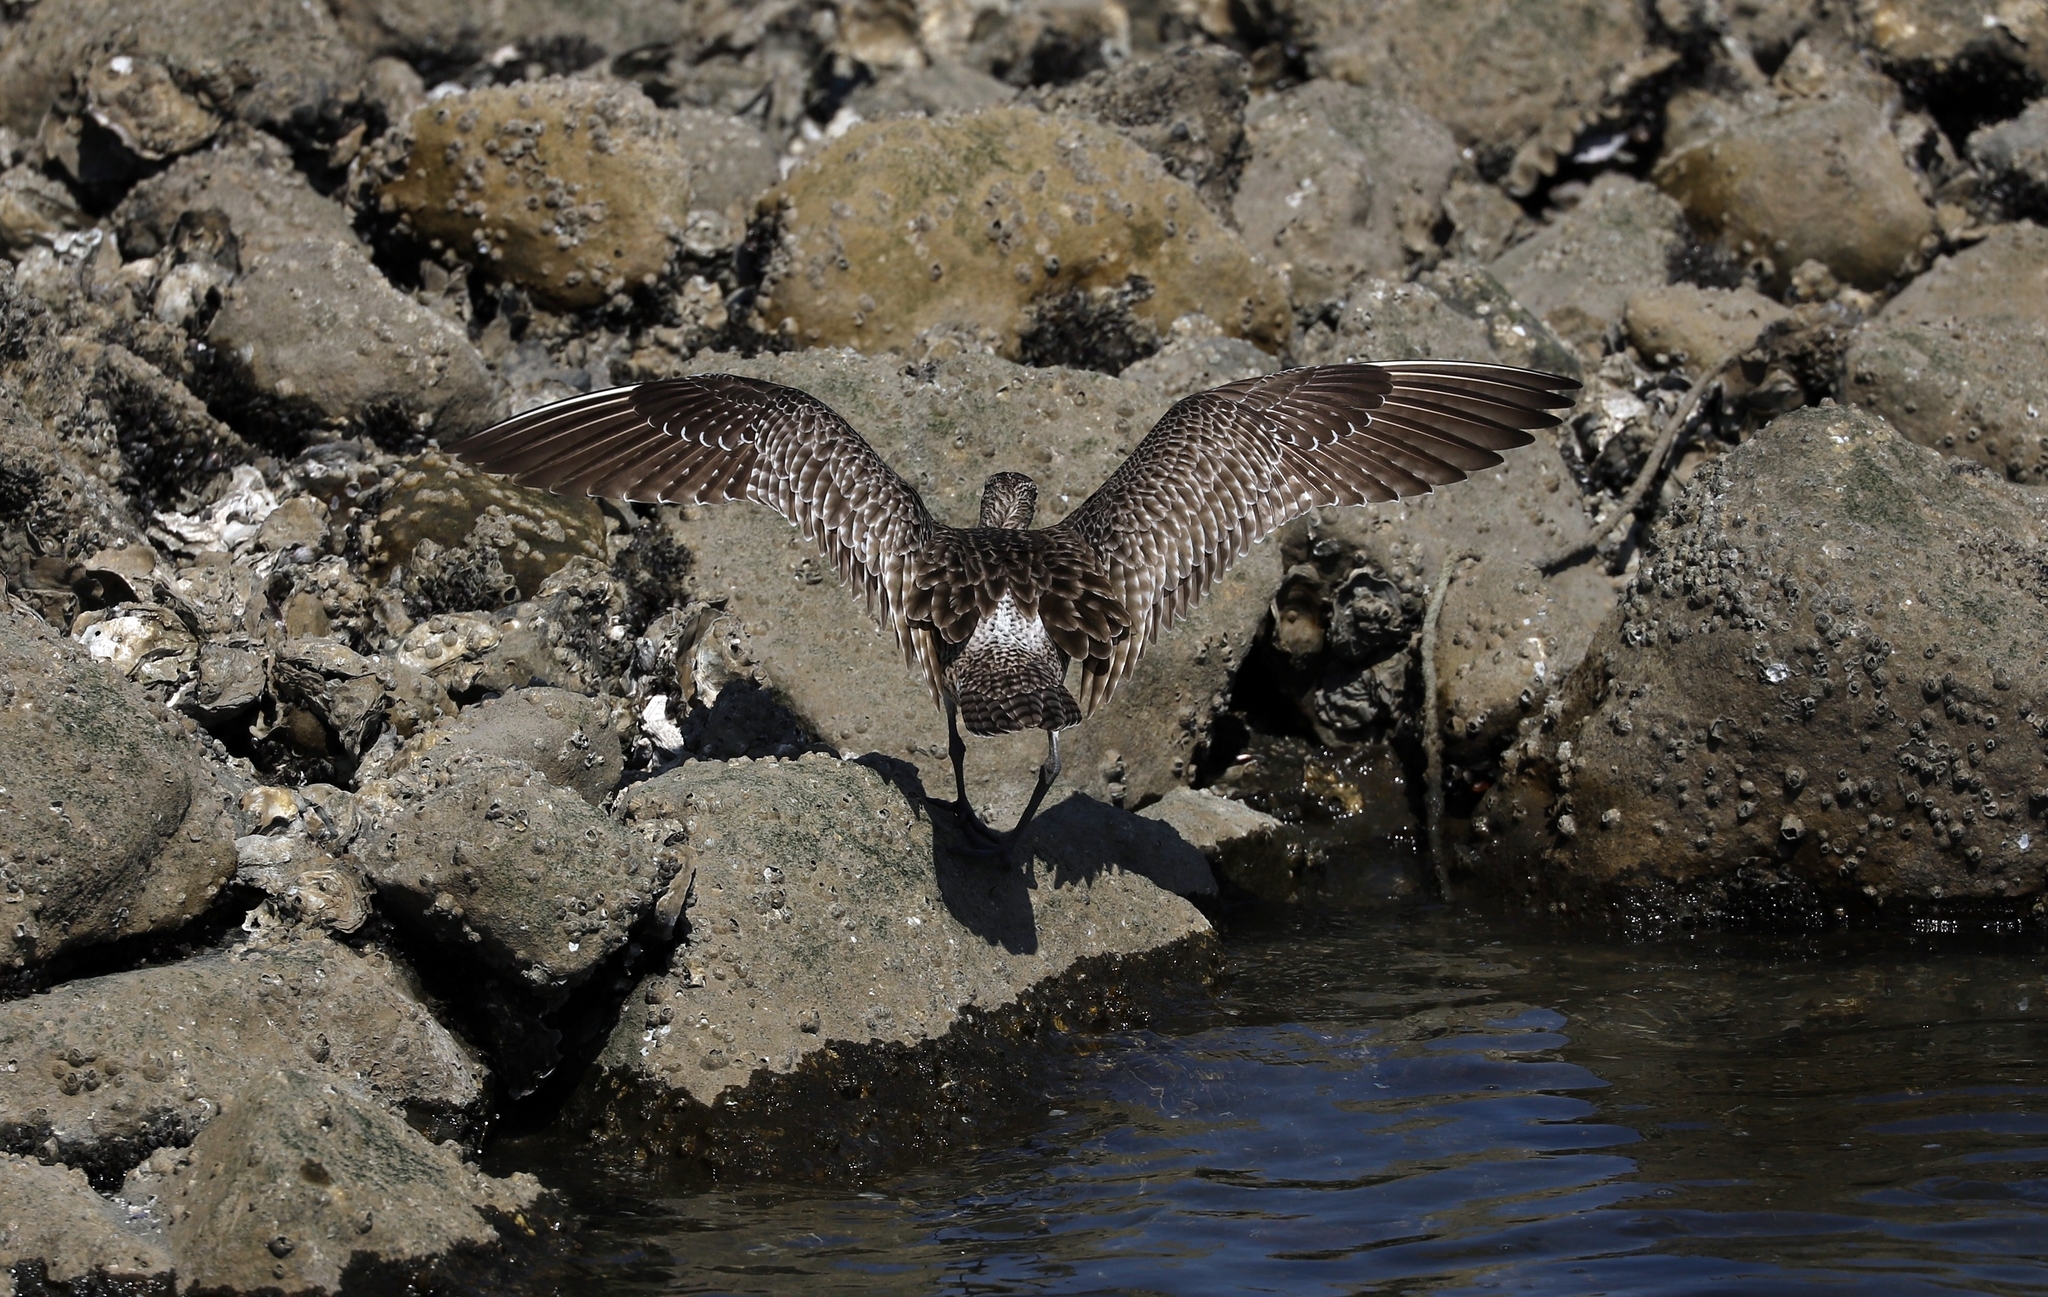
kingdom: Animalia
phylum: Chordata
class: Aves
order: Charadriiformes
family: Scolopacidae
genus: Numenius
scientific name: Numenius phaeopus
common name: Whimbrel
